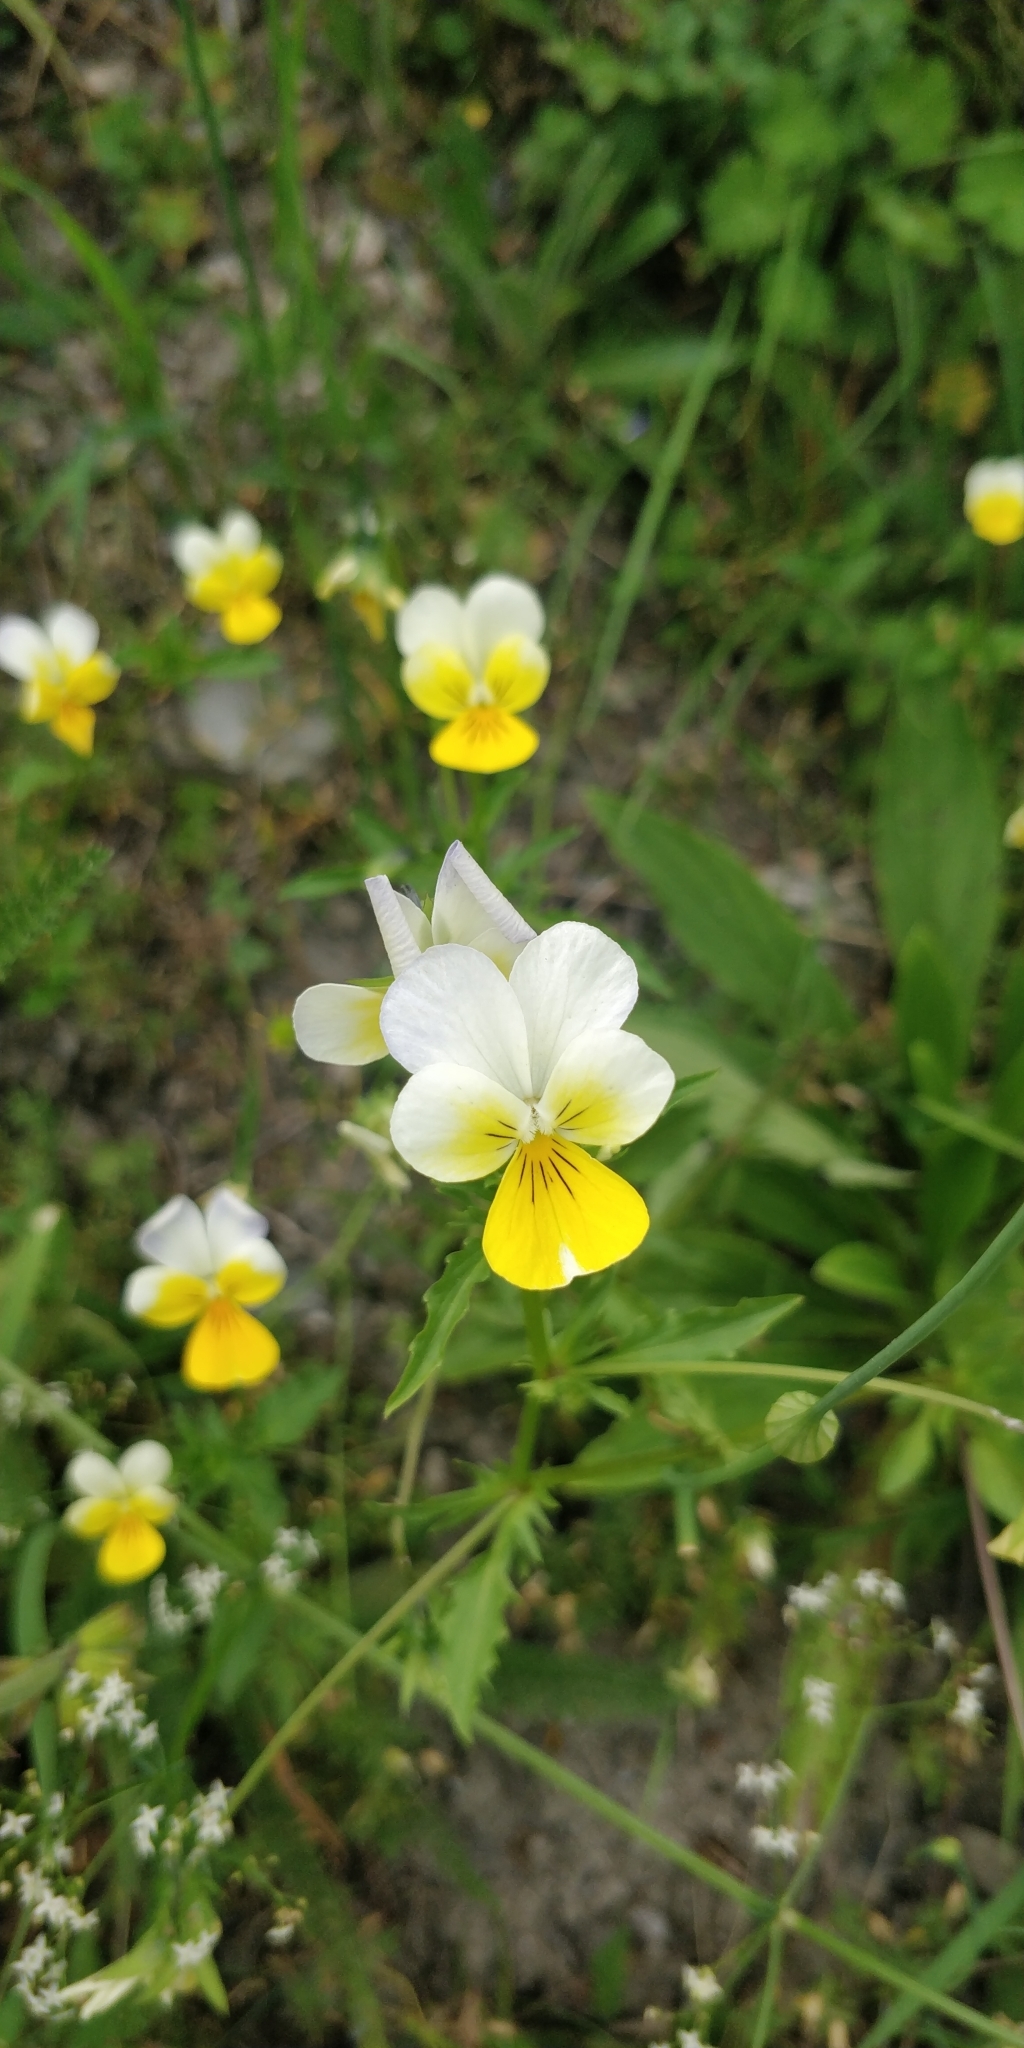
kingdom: Plantae
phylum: Tracheophyta
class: Magnoliopsida
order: Malpighiales
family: Violaceae
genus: Viola
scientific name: Viola tricolor
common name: Pansy
